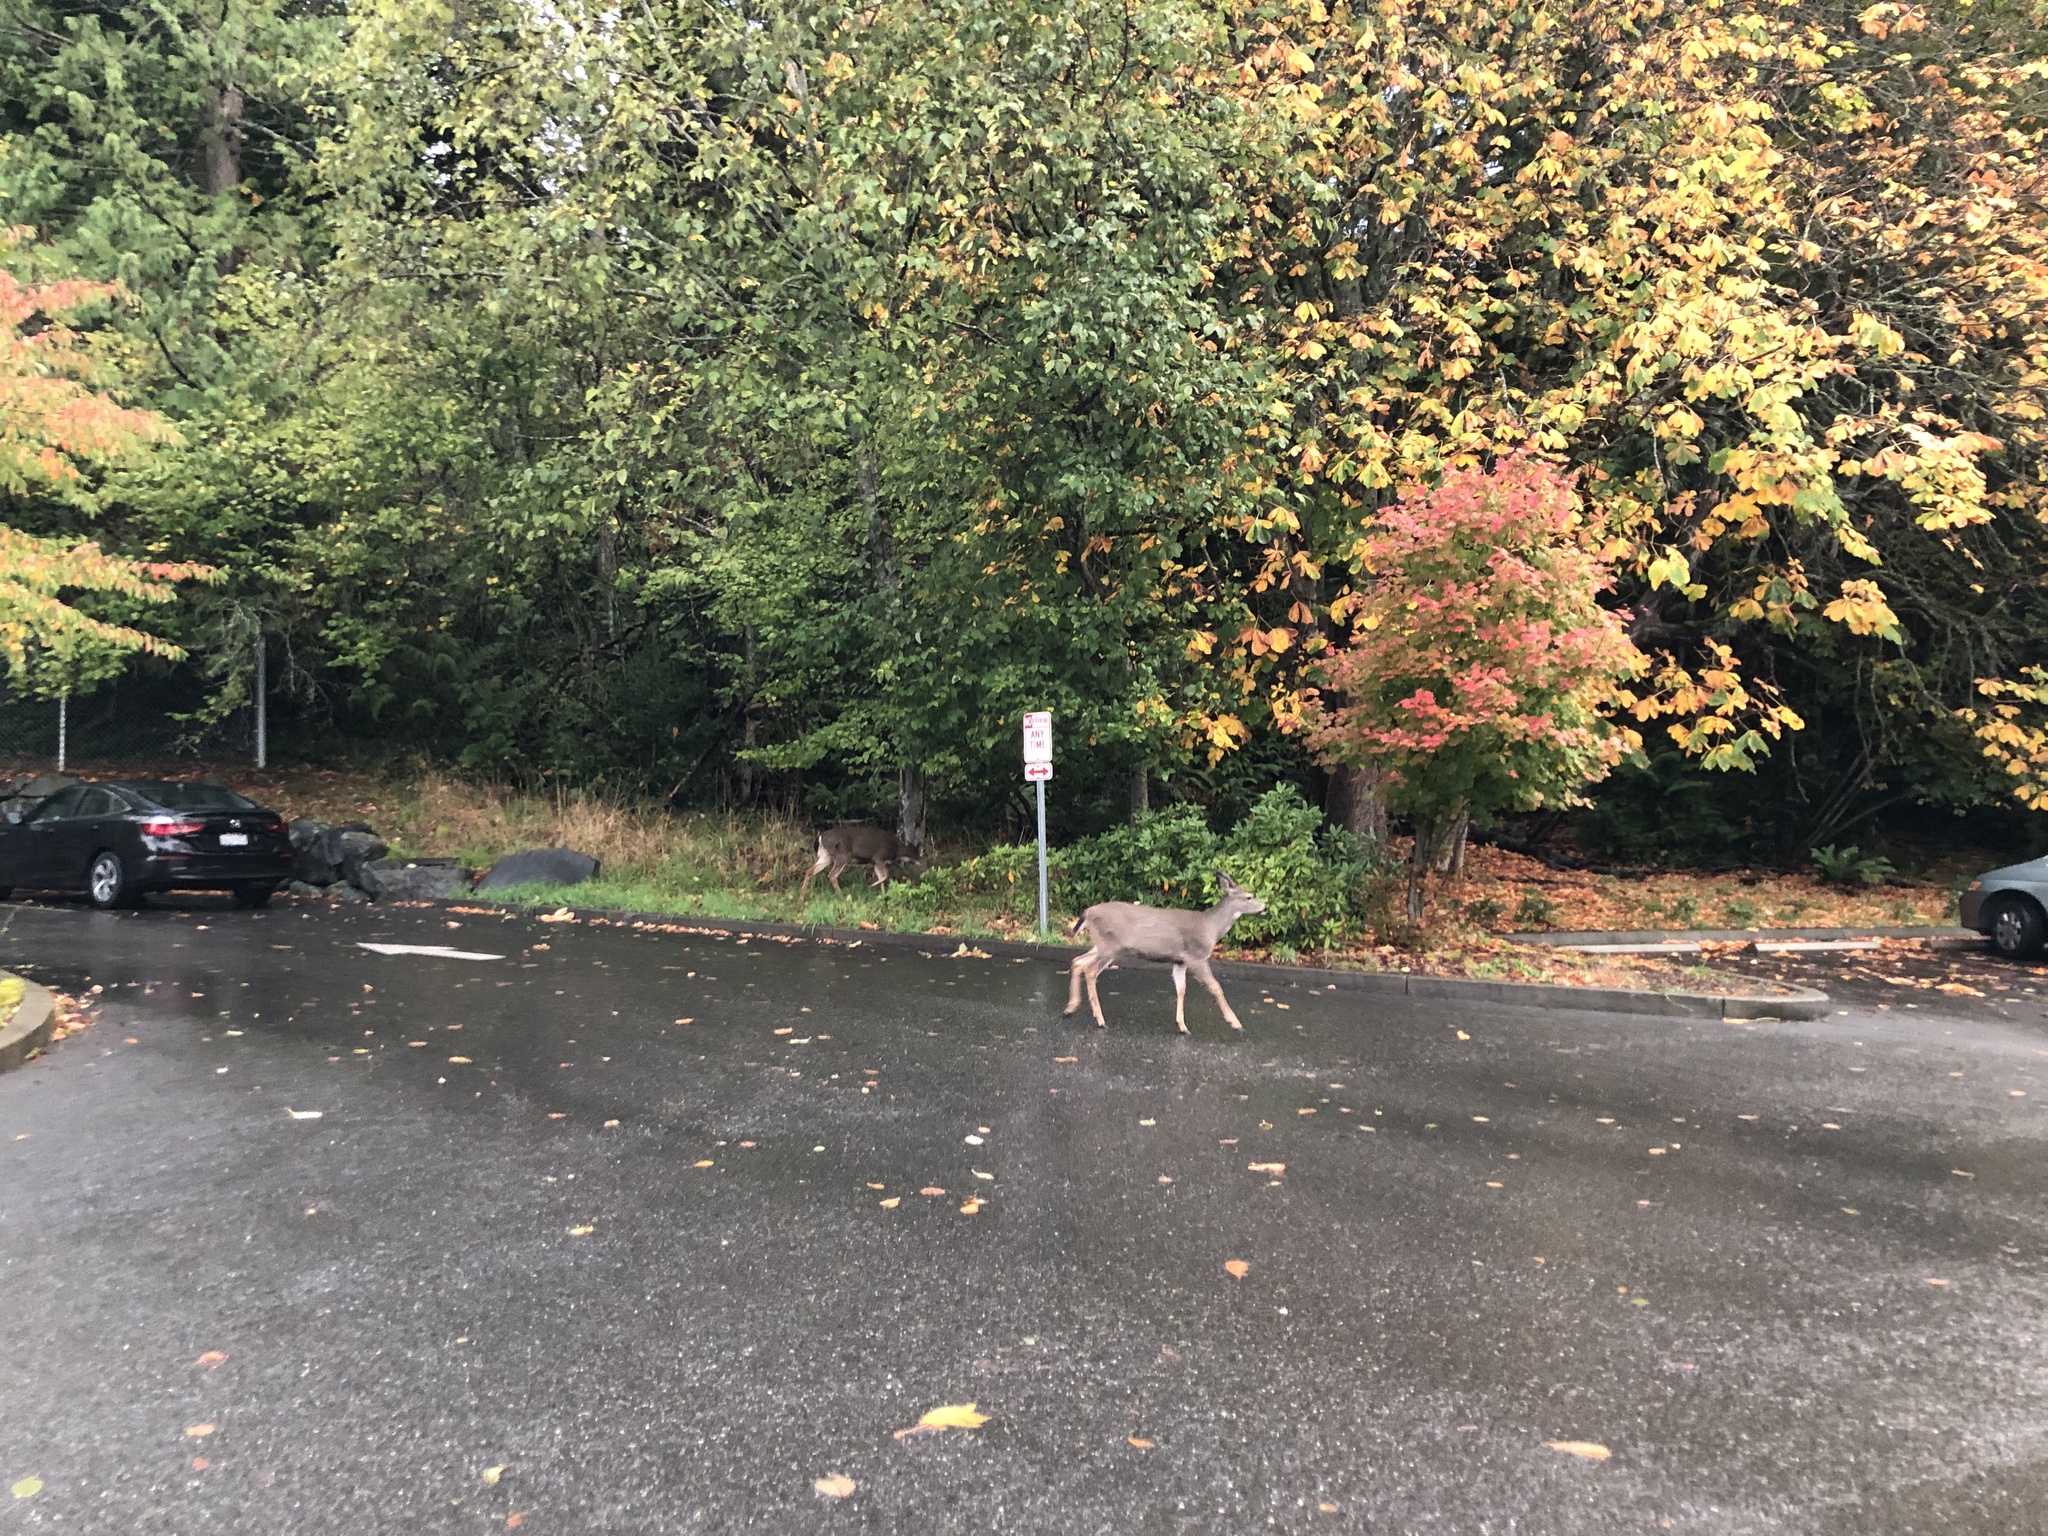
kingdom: Animalia
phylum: Chordata
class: Mammalia
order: Artiodactyla
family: Cervidae
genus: Odocoileus
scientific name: Odocoileus hemionus
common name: Mule deer
